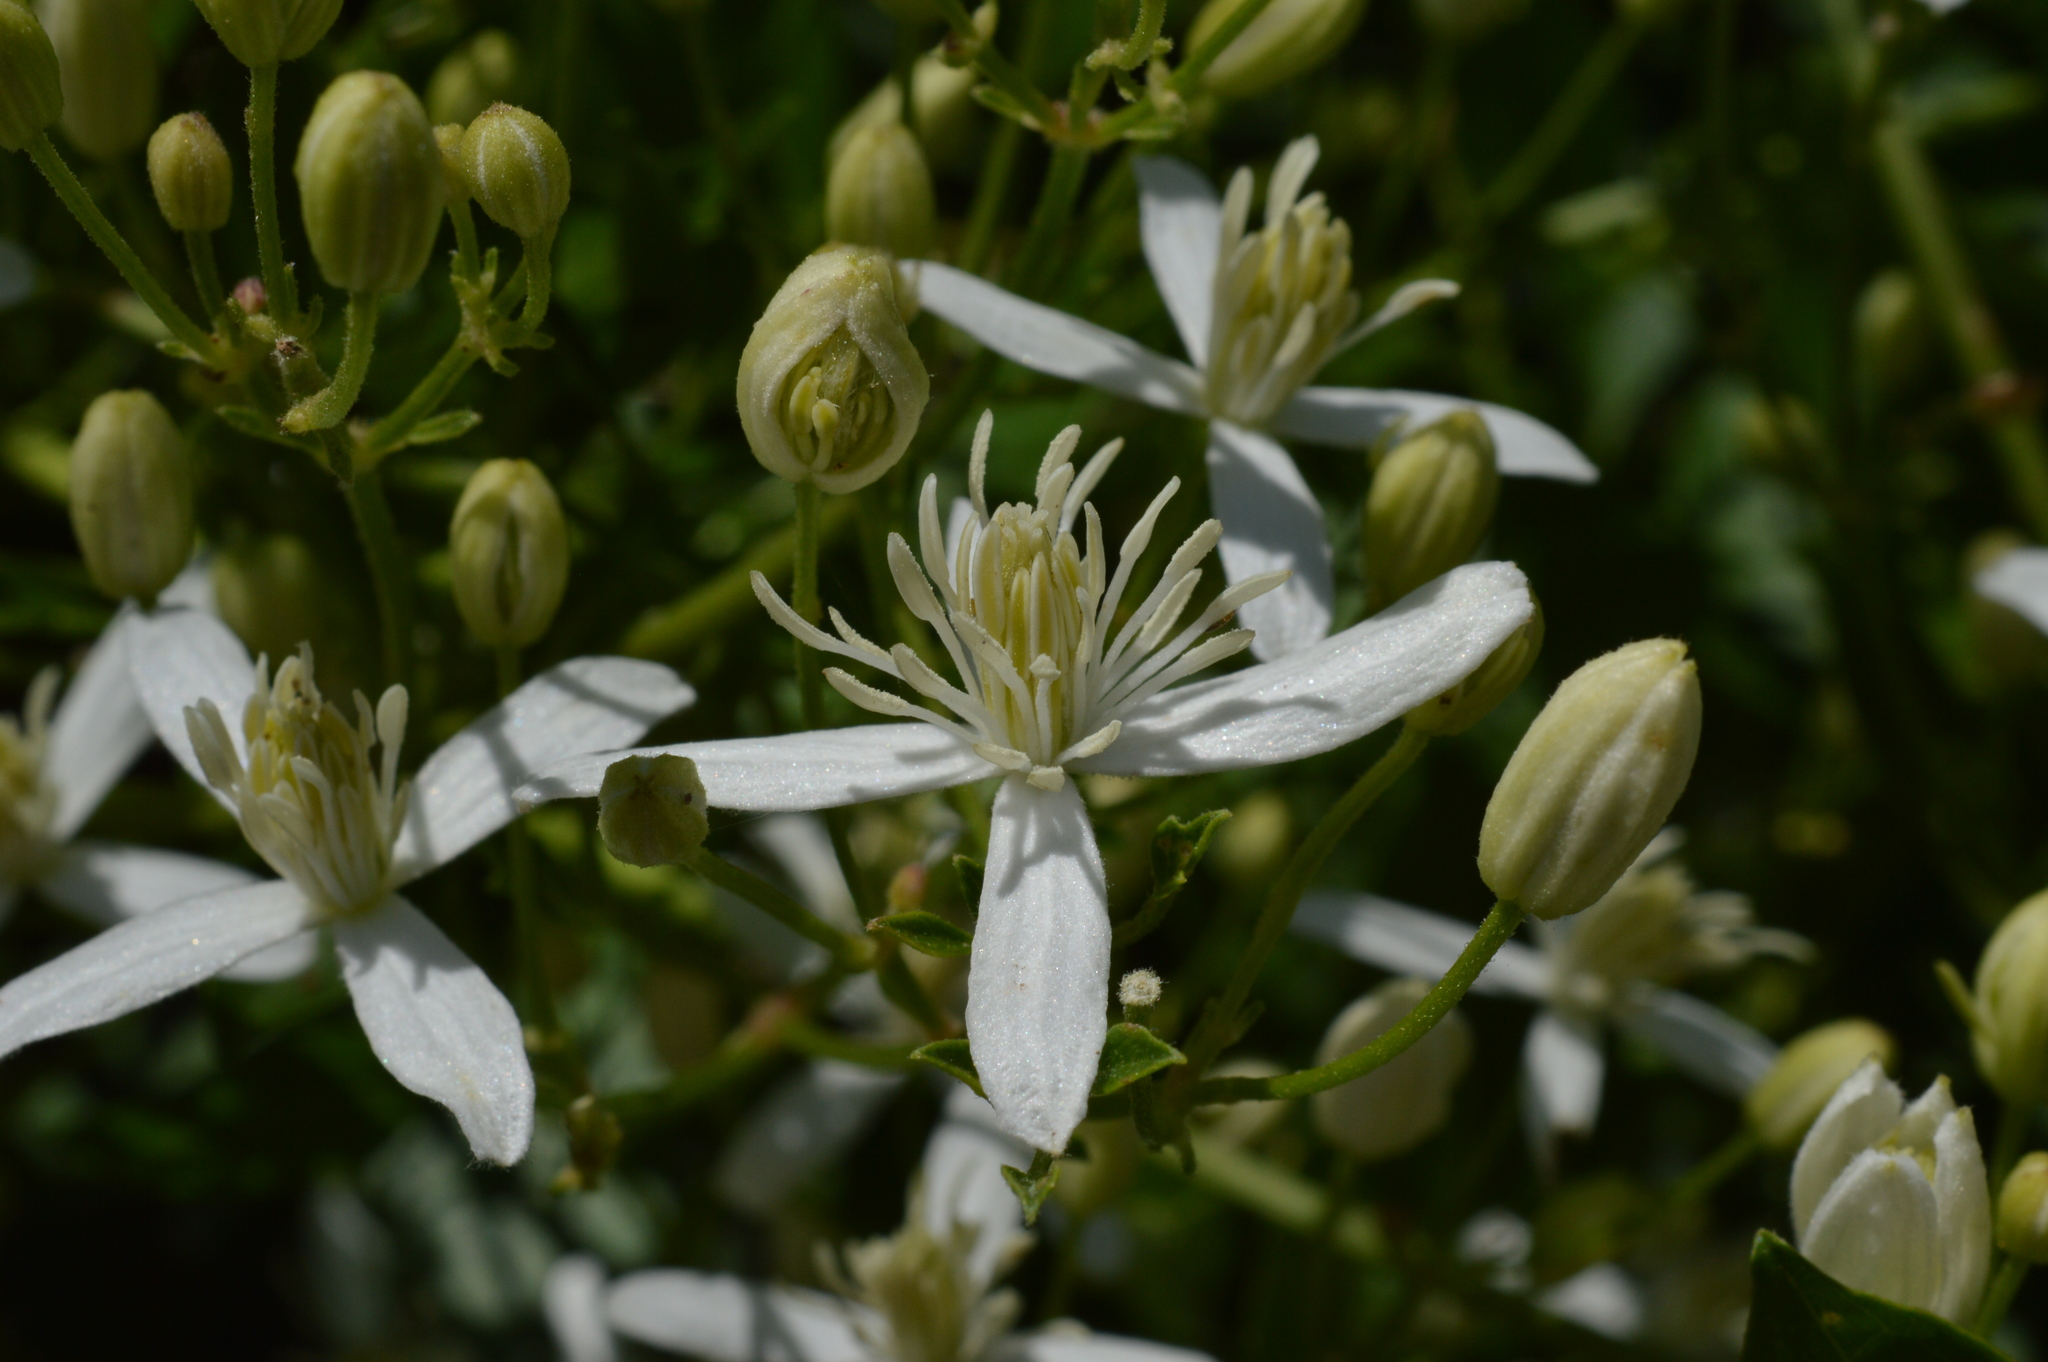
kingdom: Plantae
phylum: Tracheophyta
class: Magnoliopsida
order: Ranunculales
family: Ranunculaceae
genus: Clematis
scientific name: Clematis flammula
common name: Virgin's-bower
